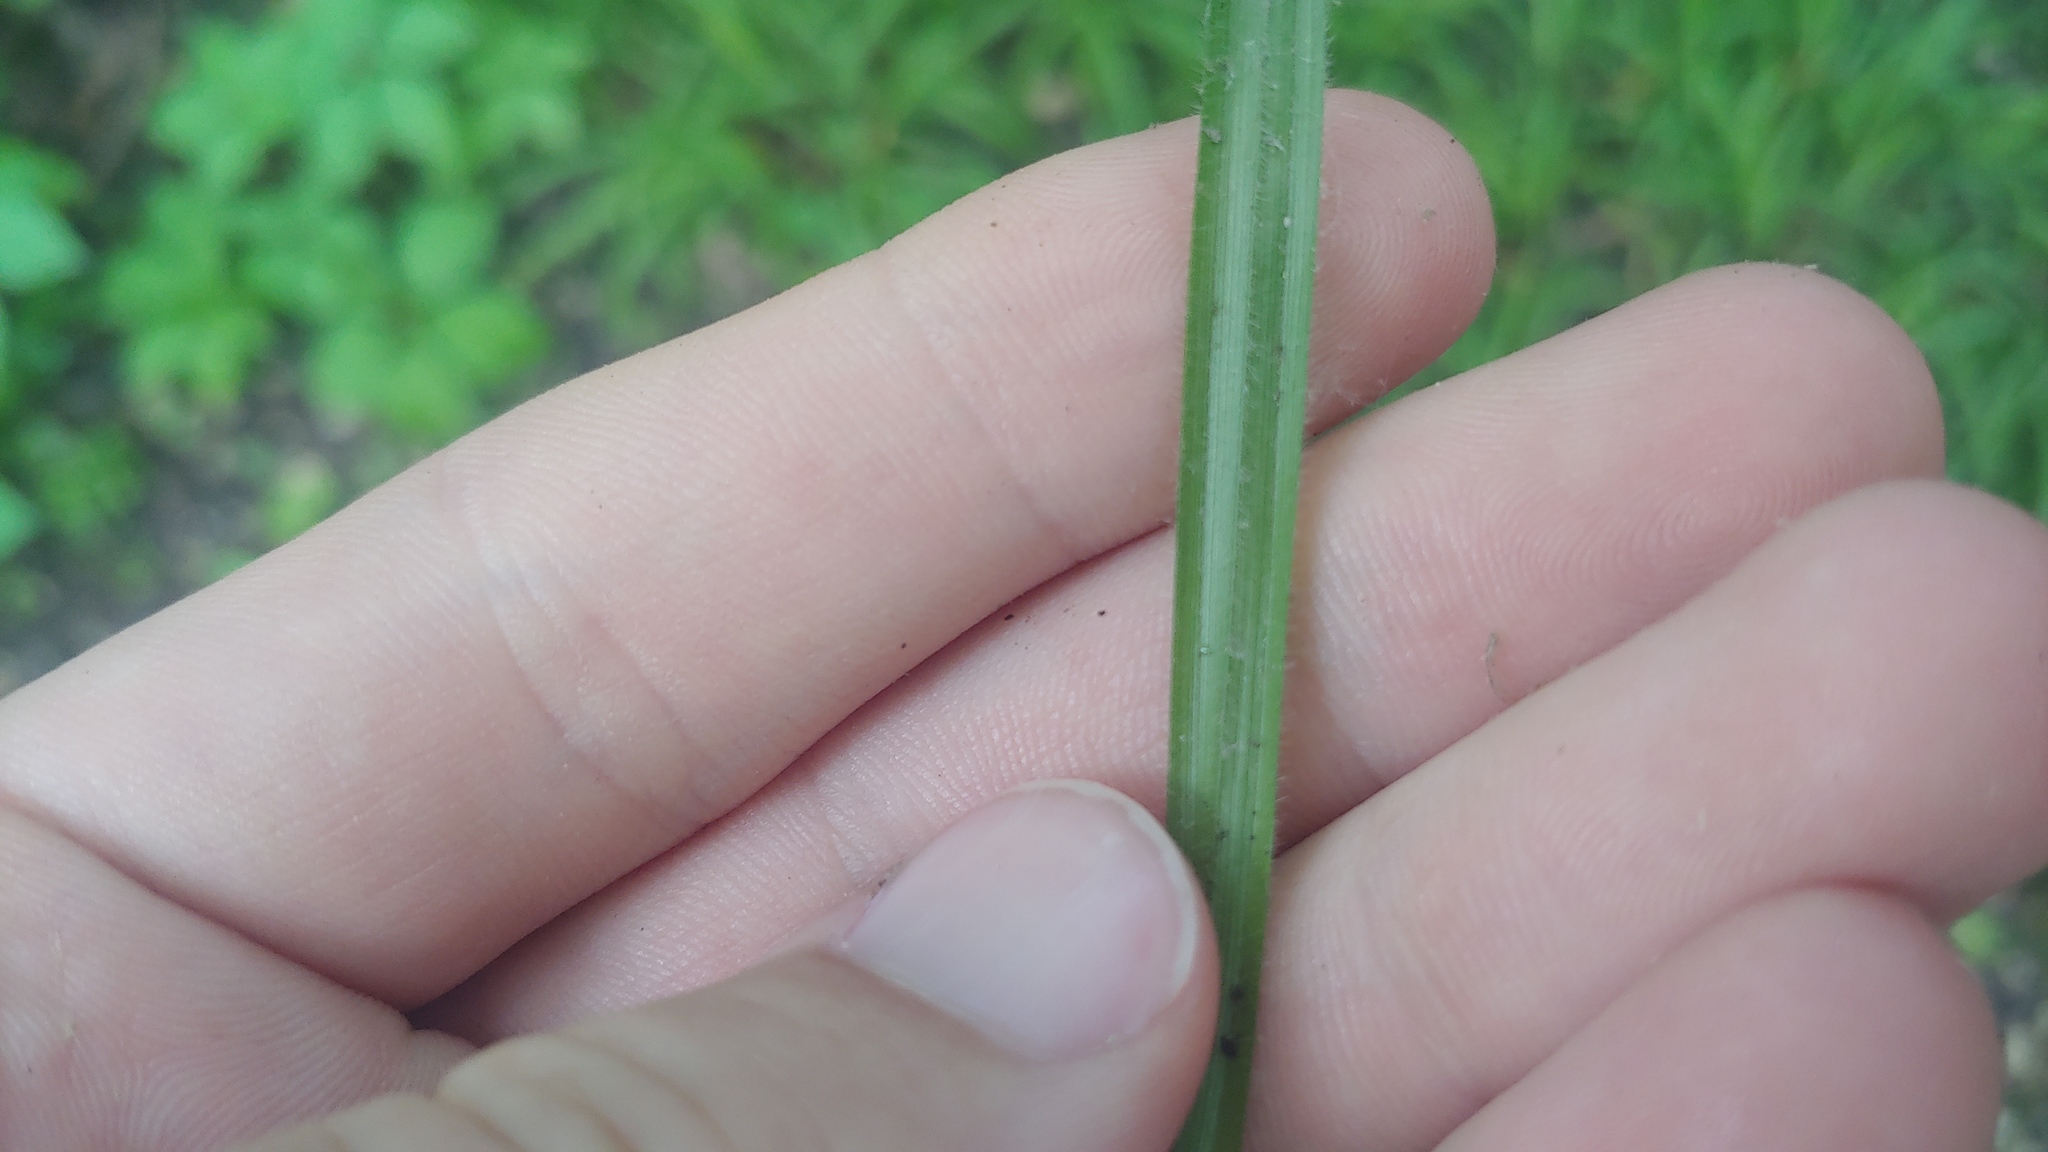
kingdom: Plantae
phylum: Tracheophyta
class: Liliopsida
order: Poales
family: Cyperaceae
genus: Carex
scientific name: Carex hirtifolia
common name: Hairy sedge
